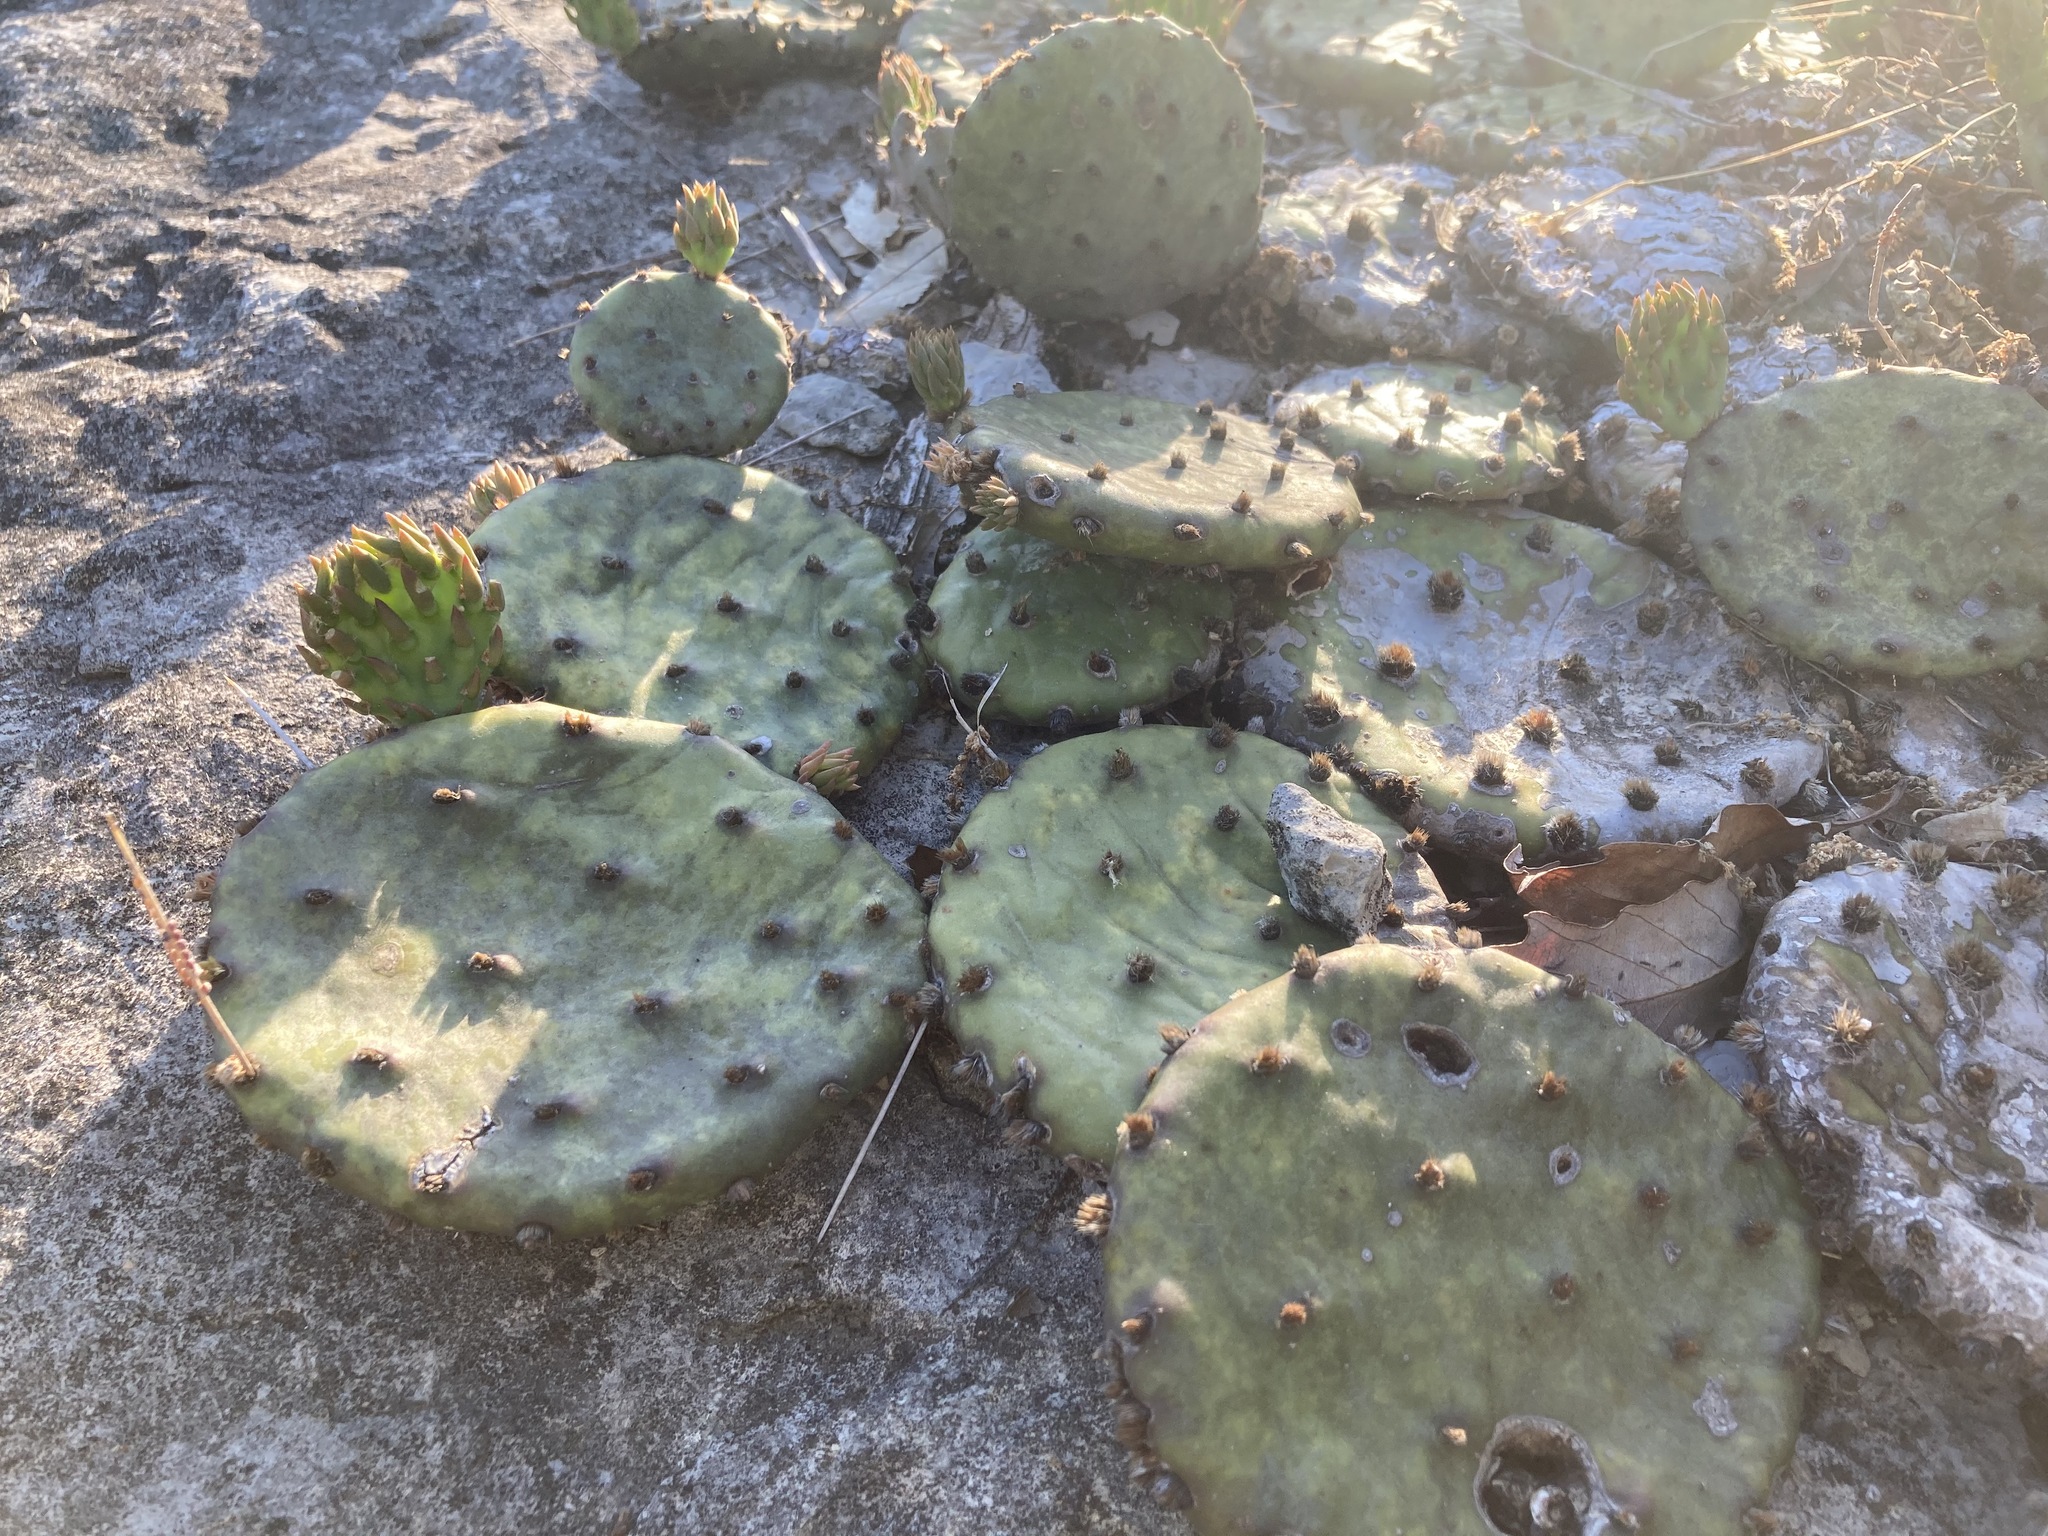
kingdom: Plantae
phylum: Tracheophyta
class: Magnoliopsida
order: Caryophyllales
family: Cactaceae
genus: Opuntia
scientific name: Opuntia humifusa
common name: Eastern prickly-pear
